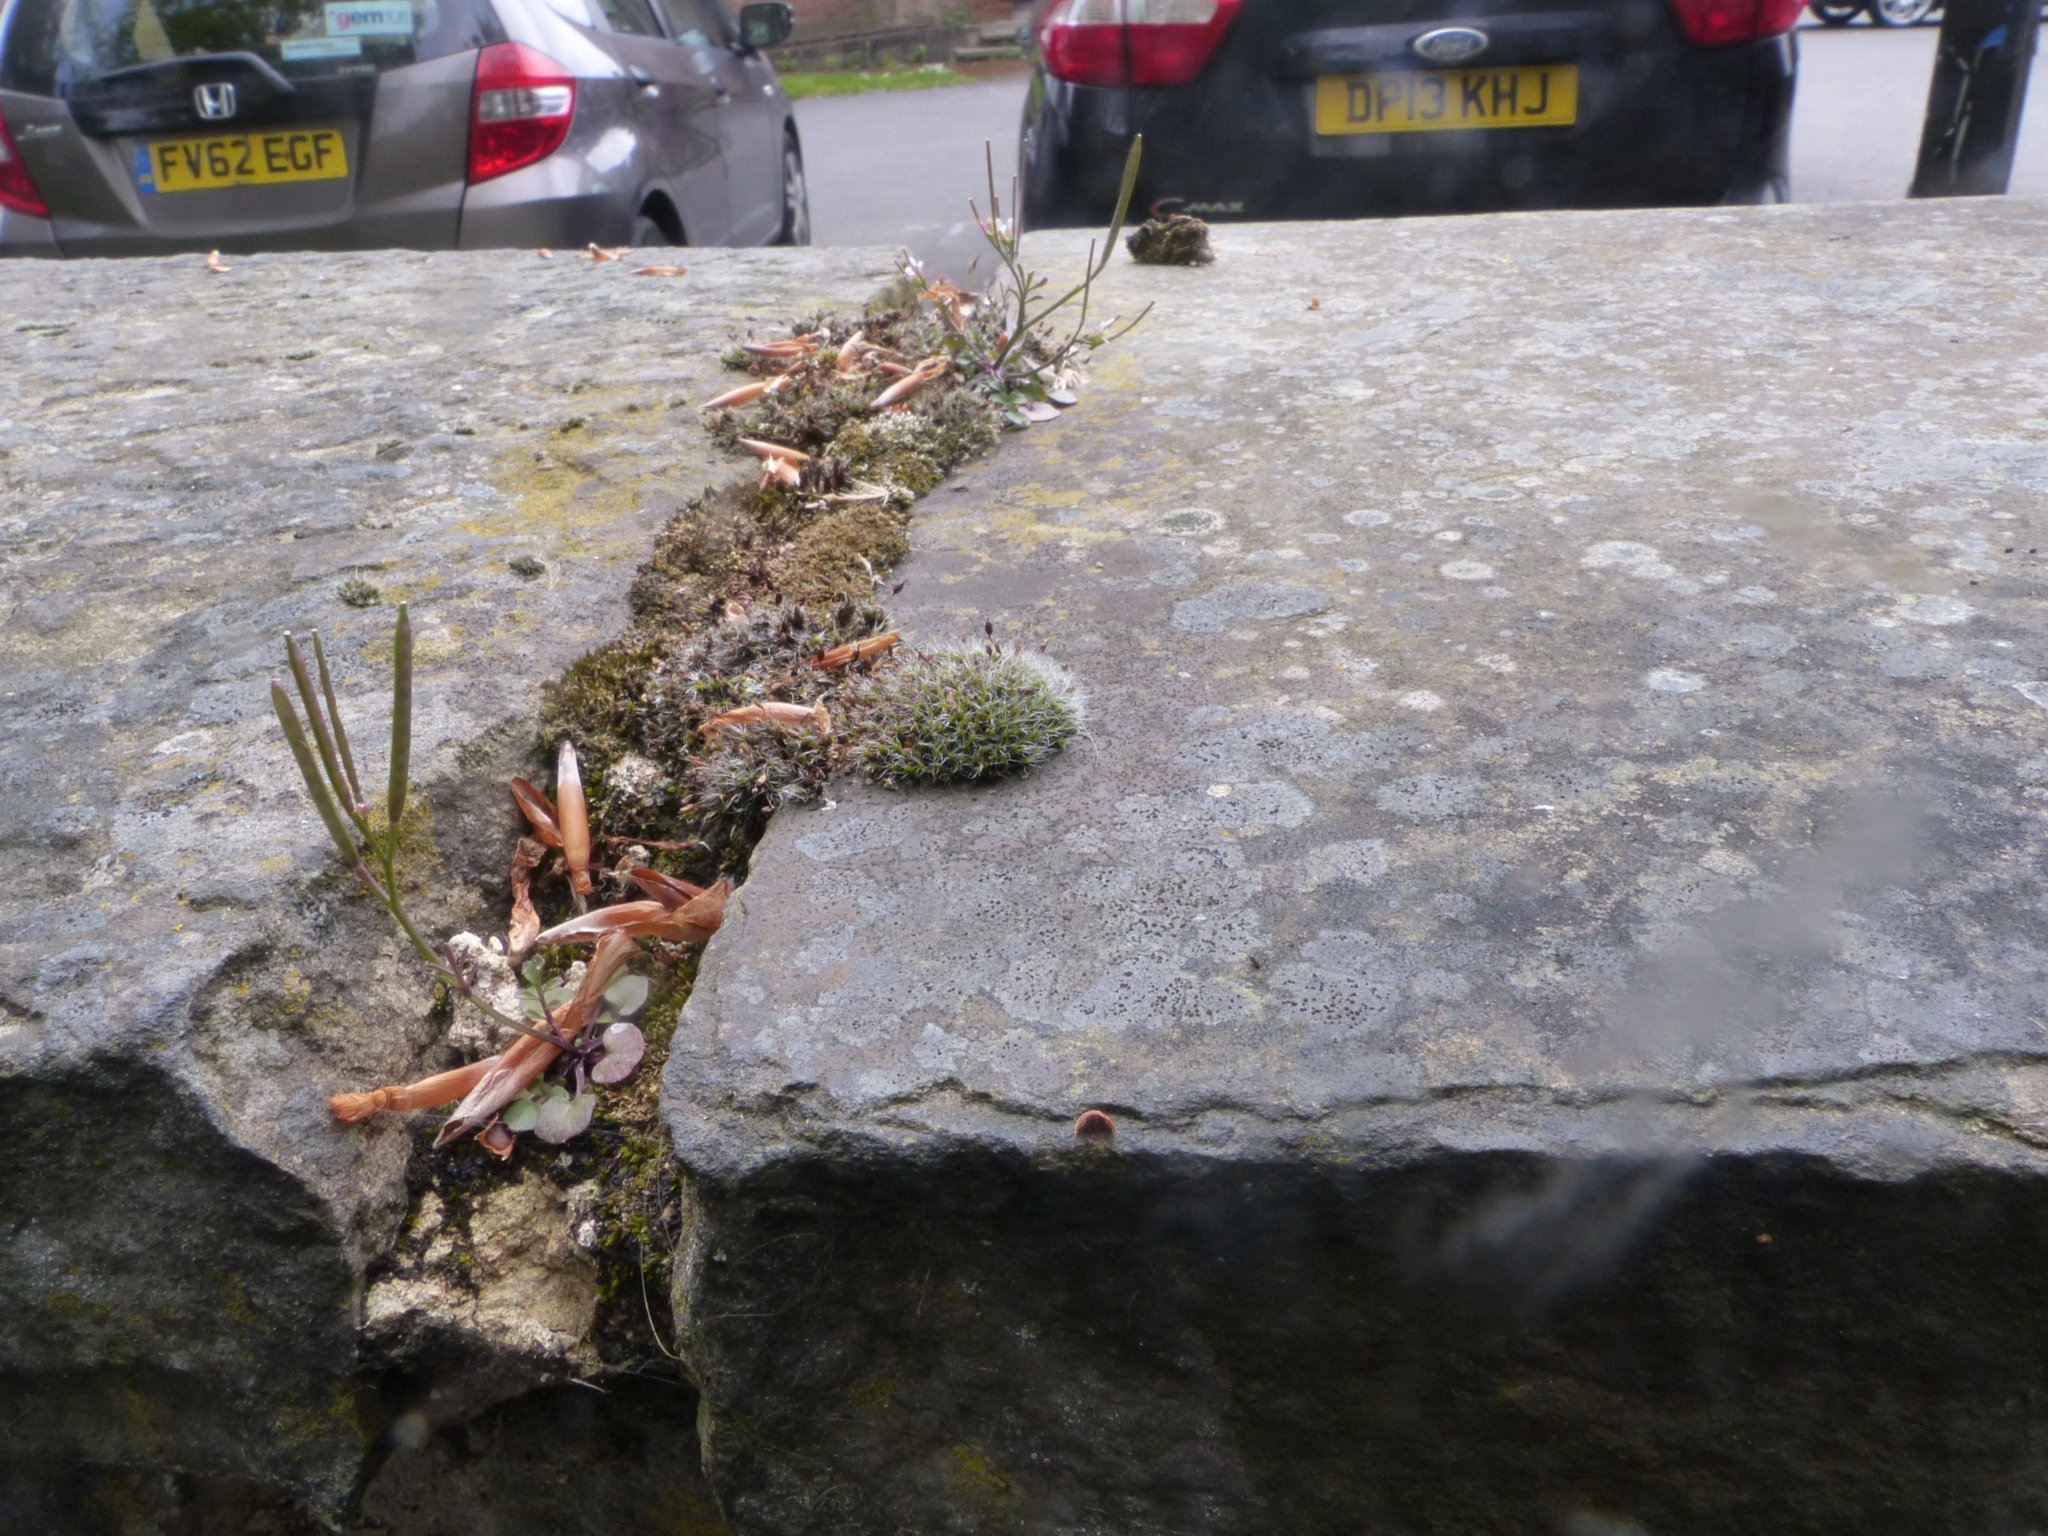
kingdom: Plantae
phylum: Bryophyta
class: Bryopsida
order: Grimmiales
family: Grimmiaceae
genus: Grimmia
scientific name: Grimmia pulvinata
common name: Grey-cushioned grimmia
